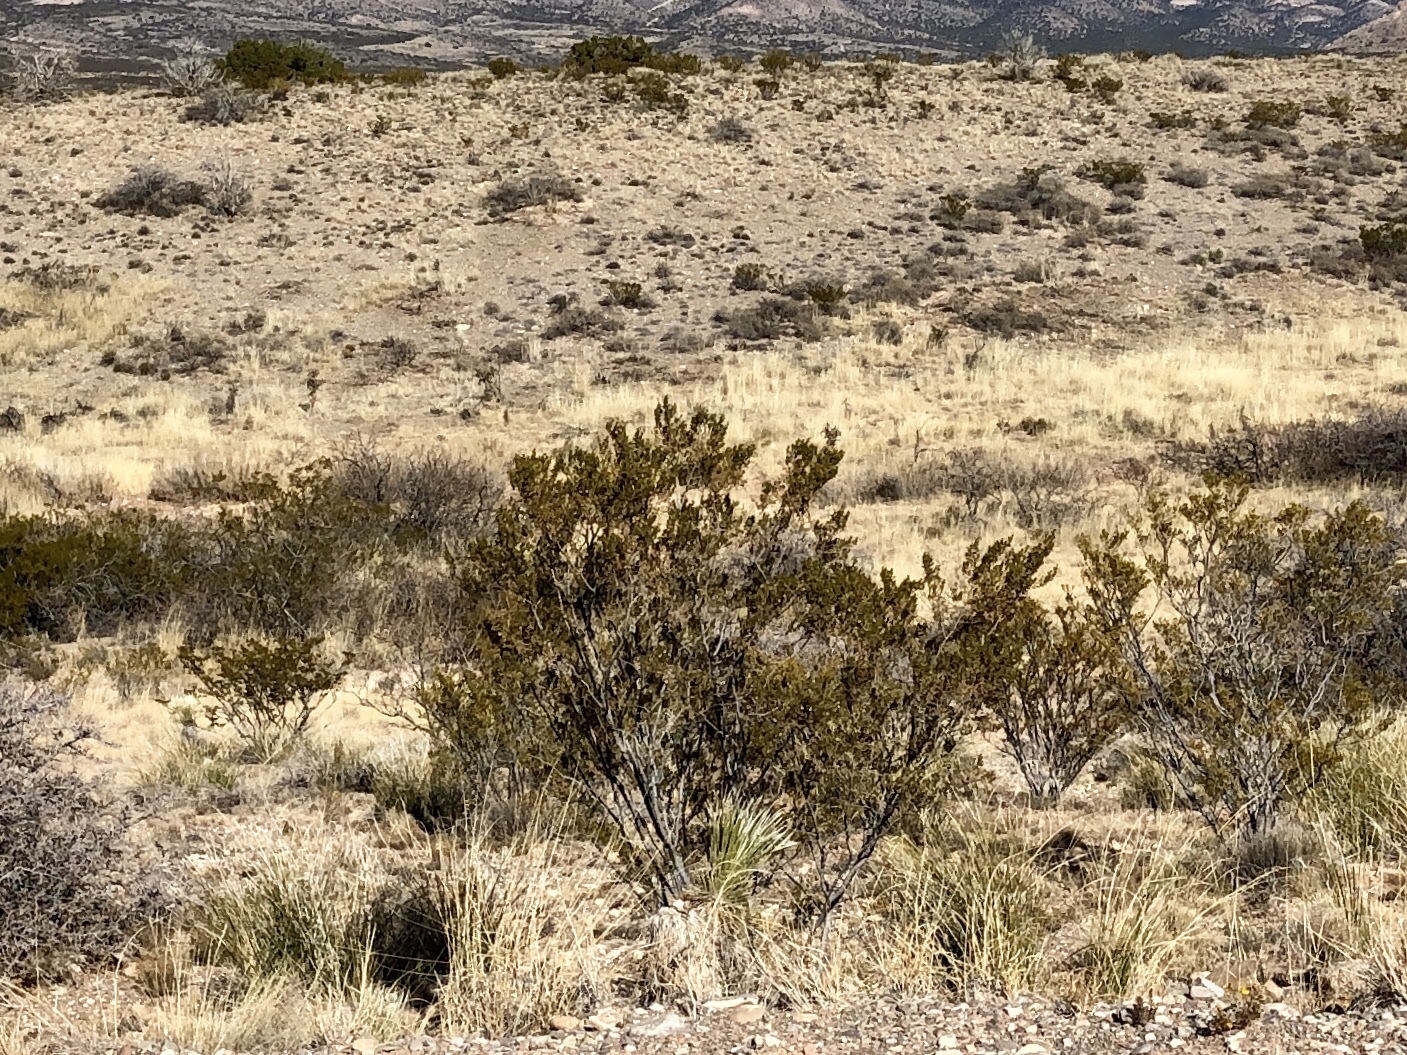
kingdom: Plantae
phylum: Tracheophyta
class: Magnoliopsida
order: Zygophyllales
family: Zygophyllaceae
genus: Larrea
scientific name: Larrea tridentata
